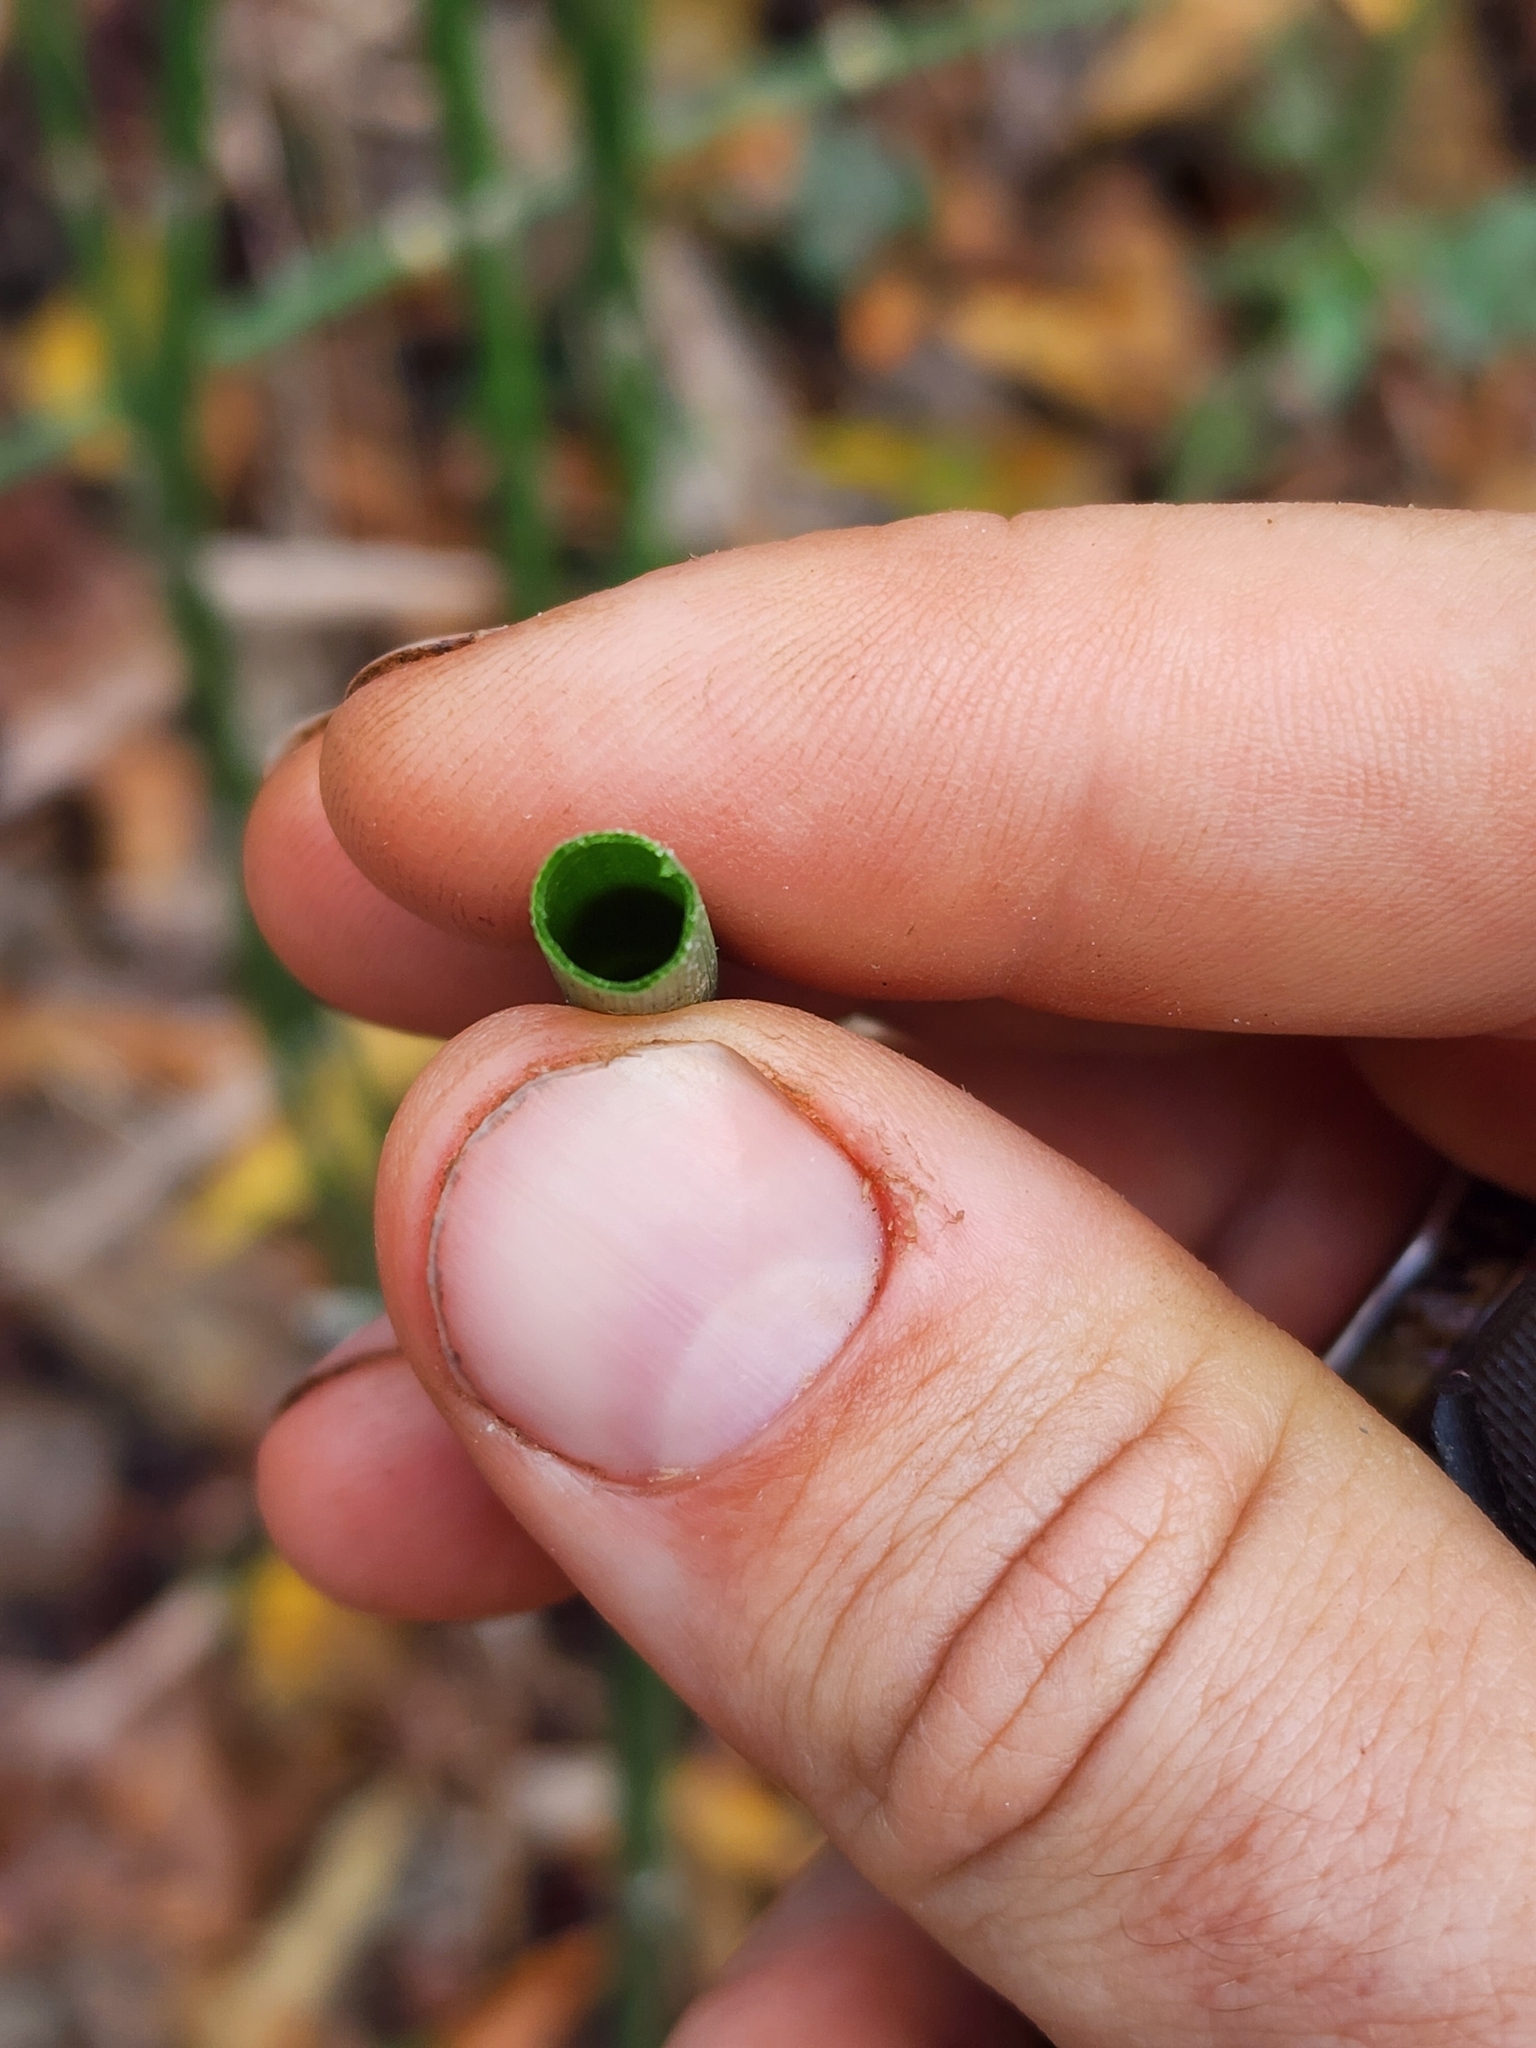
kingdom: Plantae
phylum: Tracheophyta
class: Polypodiopsida
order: Equisetales
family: Equisetaceae
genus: Equisetum
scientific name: Equisetum praealtum
